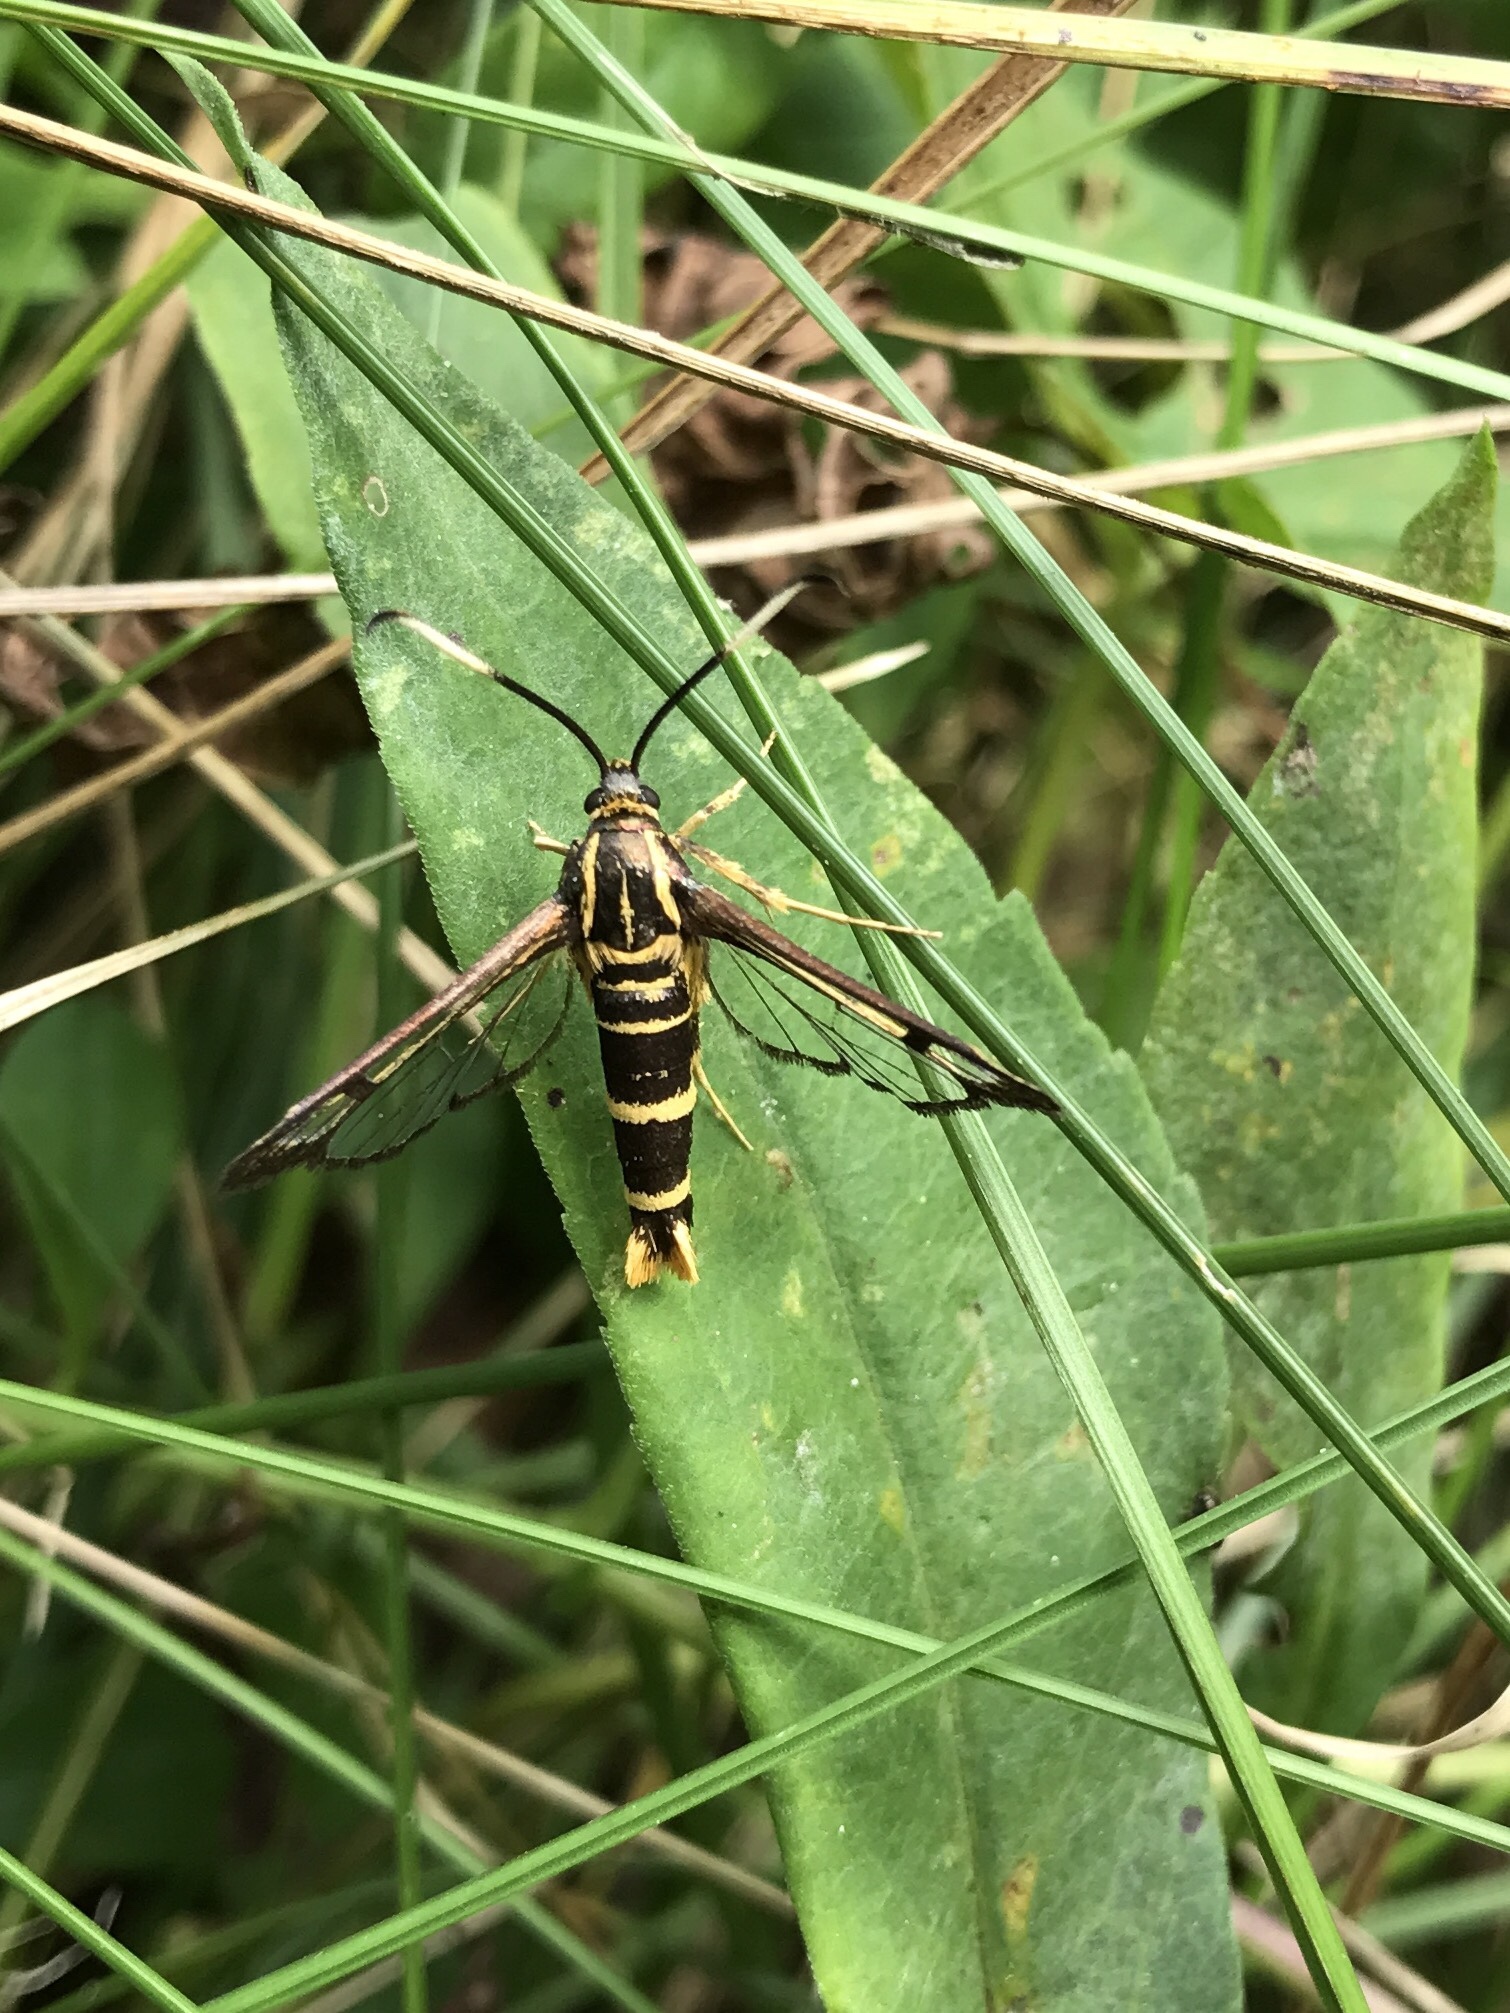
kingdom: Animalia
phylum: Arthropoda
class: Insecta
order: Lepidoptera
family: Sesiidae
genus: Carmenta
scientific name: Carmenta bassiformis
